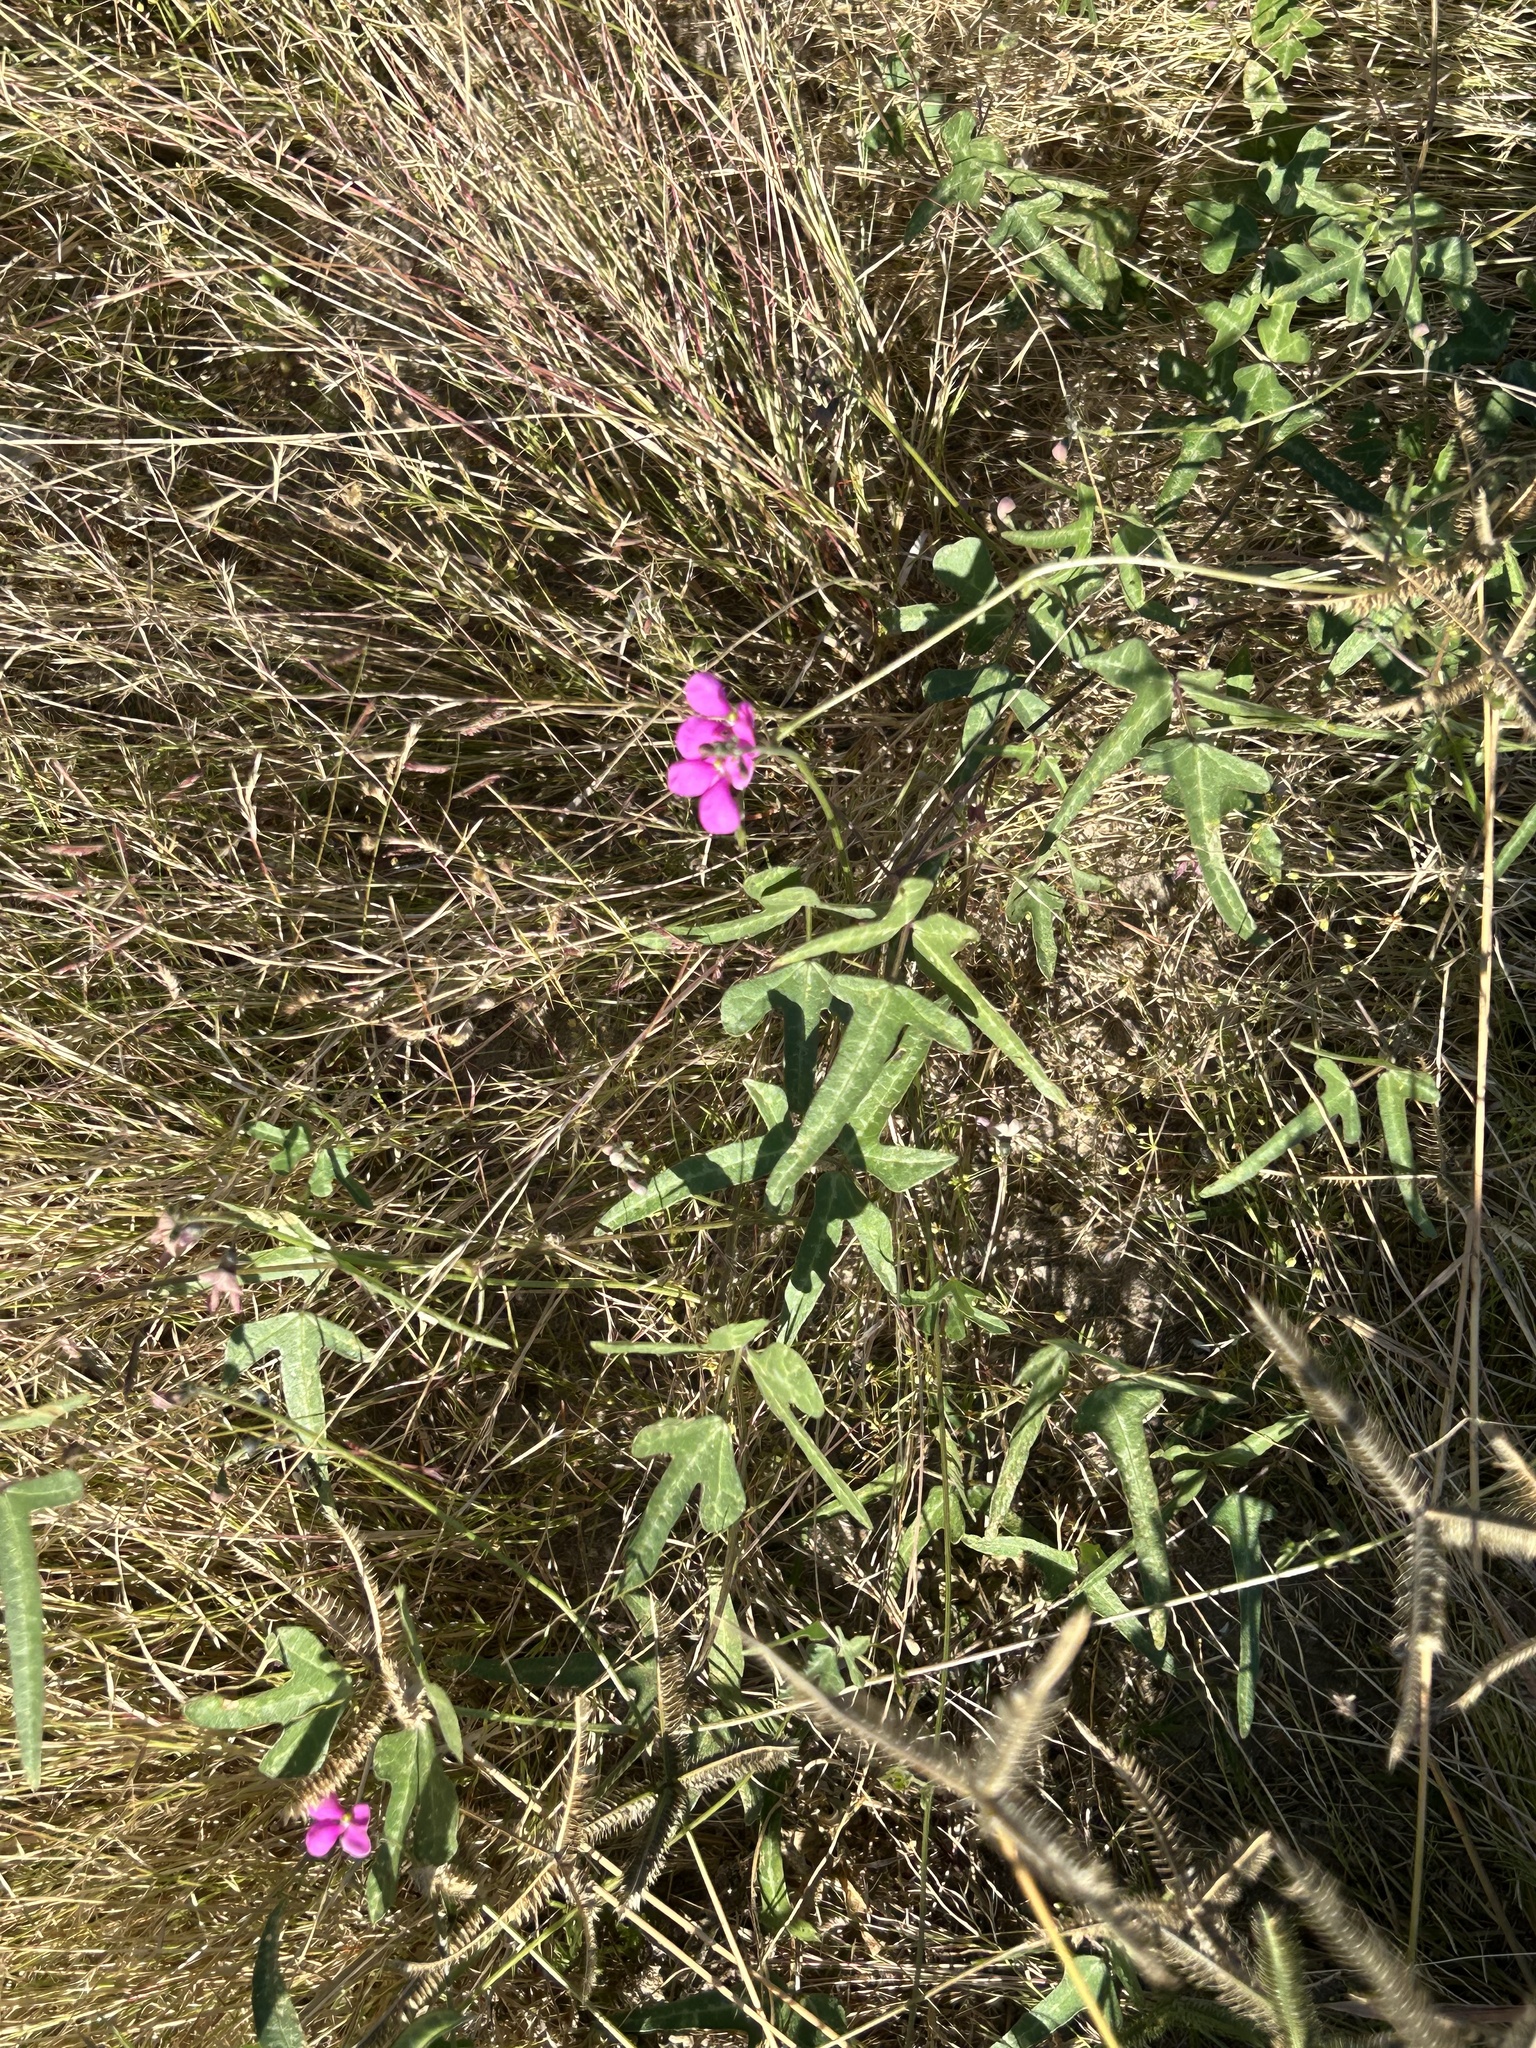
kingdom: Plantae
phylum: Tracheophyta
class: Magnoliopsida
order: Fabales
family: Fabaceae
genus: Phaseolus
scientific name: Phaseolus filiformis
